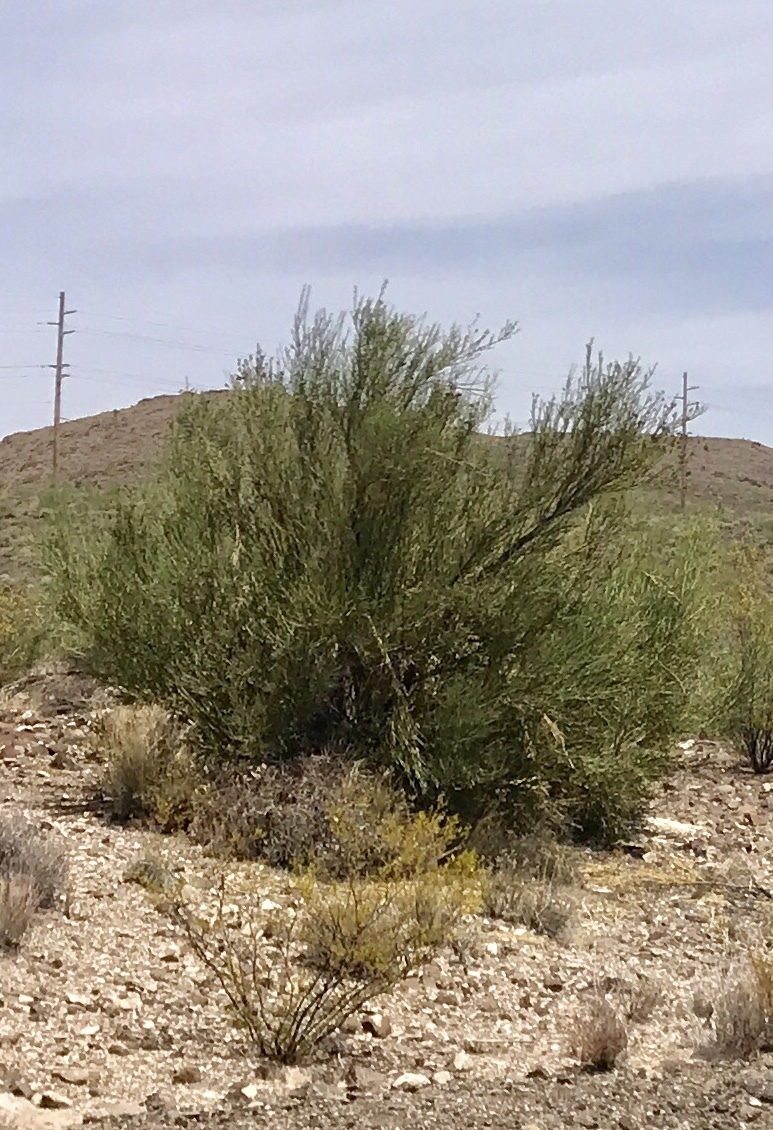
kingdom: Plantae
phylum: Tracheophyta
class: Magnoliopsida
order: Celastrales
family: Celastraceae
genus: Canotia
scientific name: Canotia holacantha
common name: Crucifixion thorns
